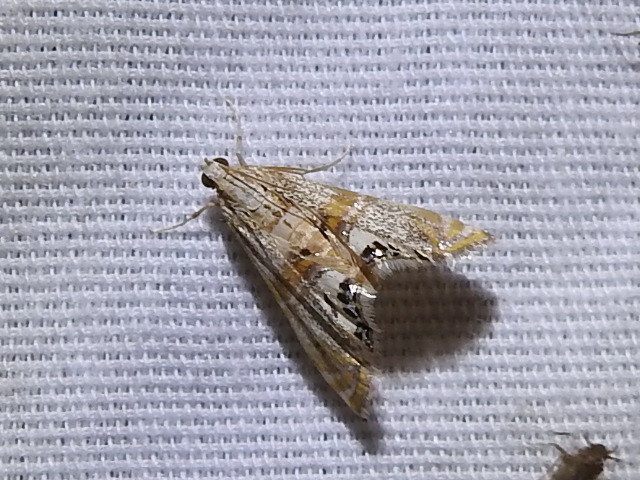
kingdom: Animalia
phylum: Arthropoda
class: Insecta
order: Lepidoptera
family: Crambidae
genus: Petrophila
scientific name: Petrophila bifascialis
